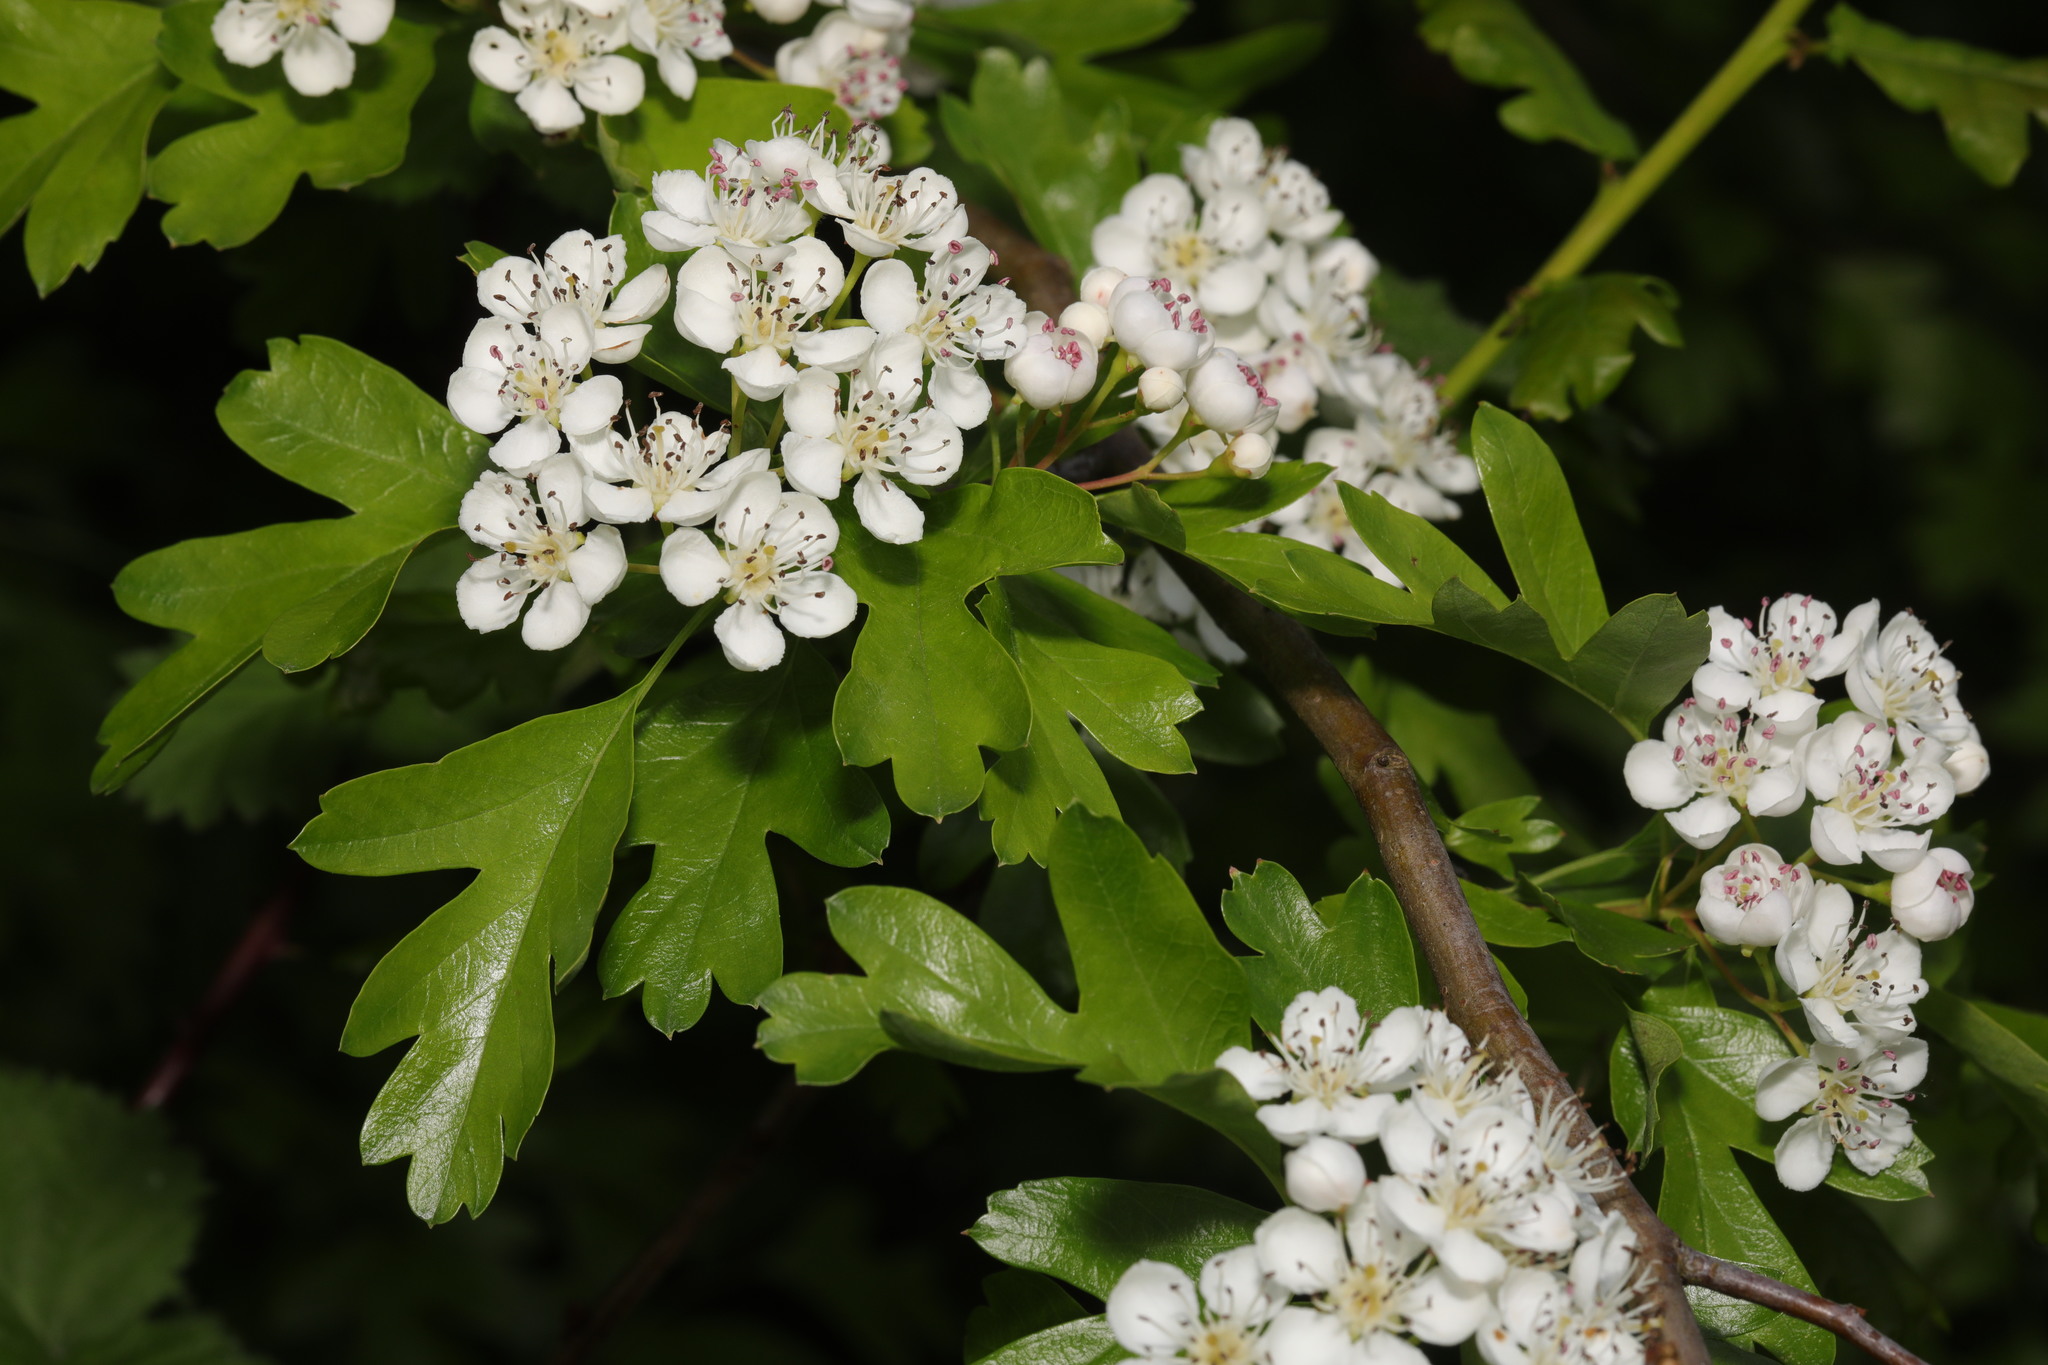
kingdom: Plantae
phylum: Tracheophyta
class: Magnoliopsida
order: Rosales
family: Rosaceae
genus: Crataegus
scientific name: Crataegus monogyna
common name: Hawthorn
